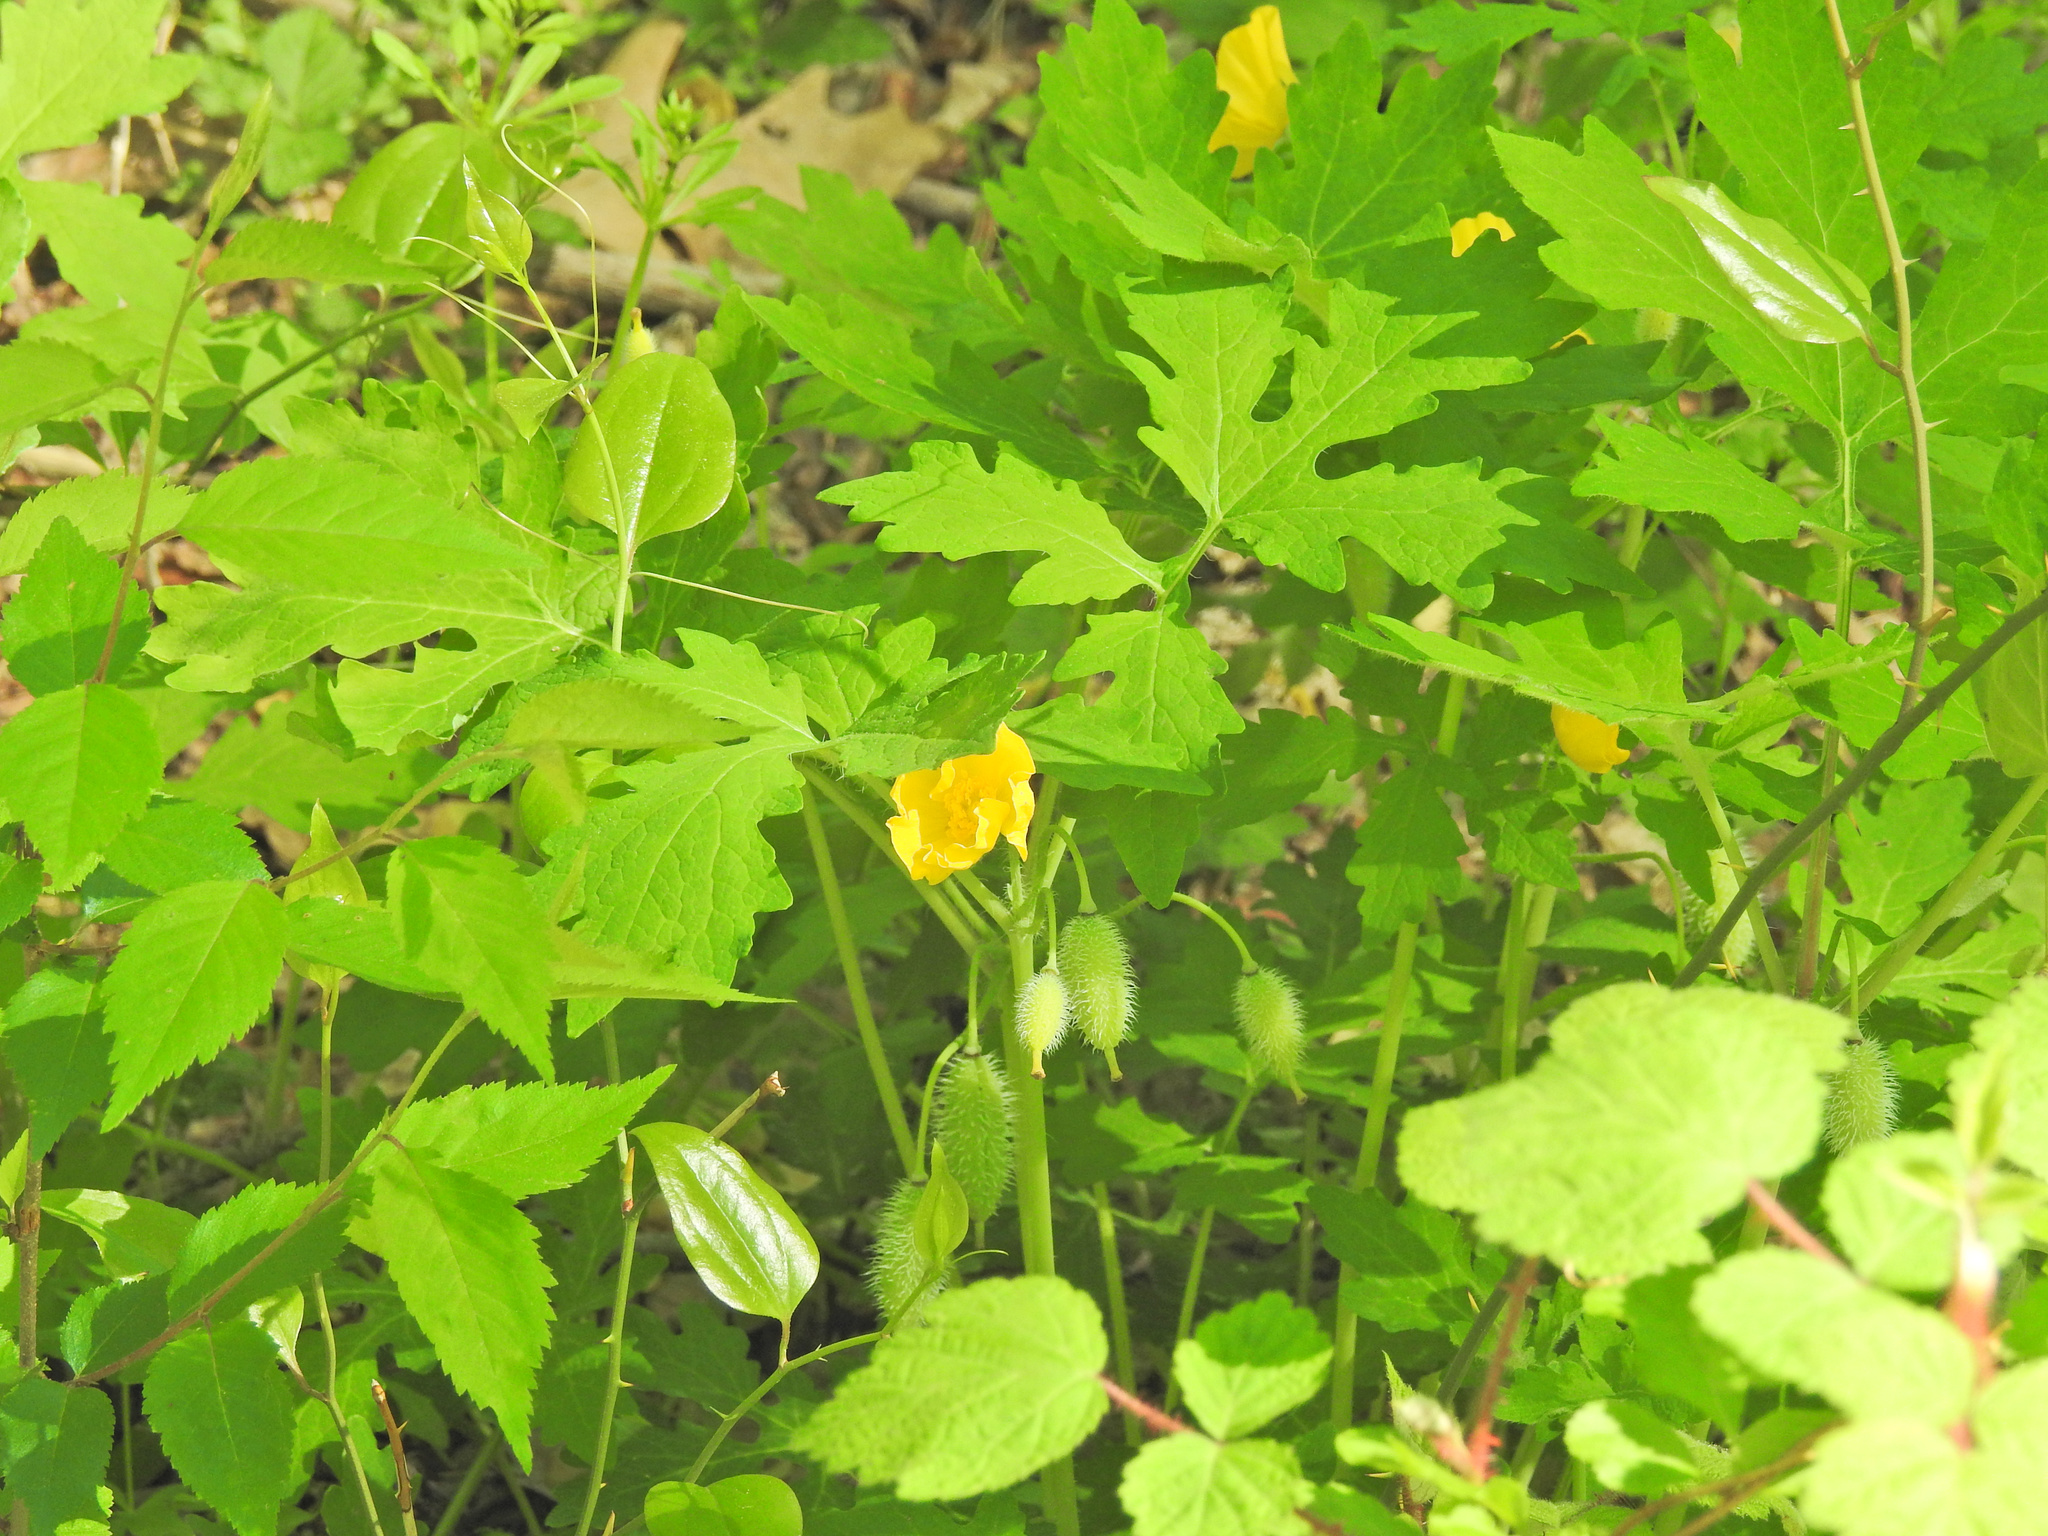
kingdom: Plantae
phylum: Tracheophyta
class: Magnoliopsida
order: Ranunculales
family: Papaveraceae
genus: Stylophorum
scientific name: Stylophorum diphyllum
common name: Celandine poppy
